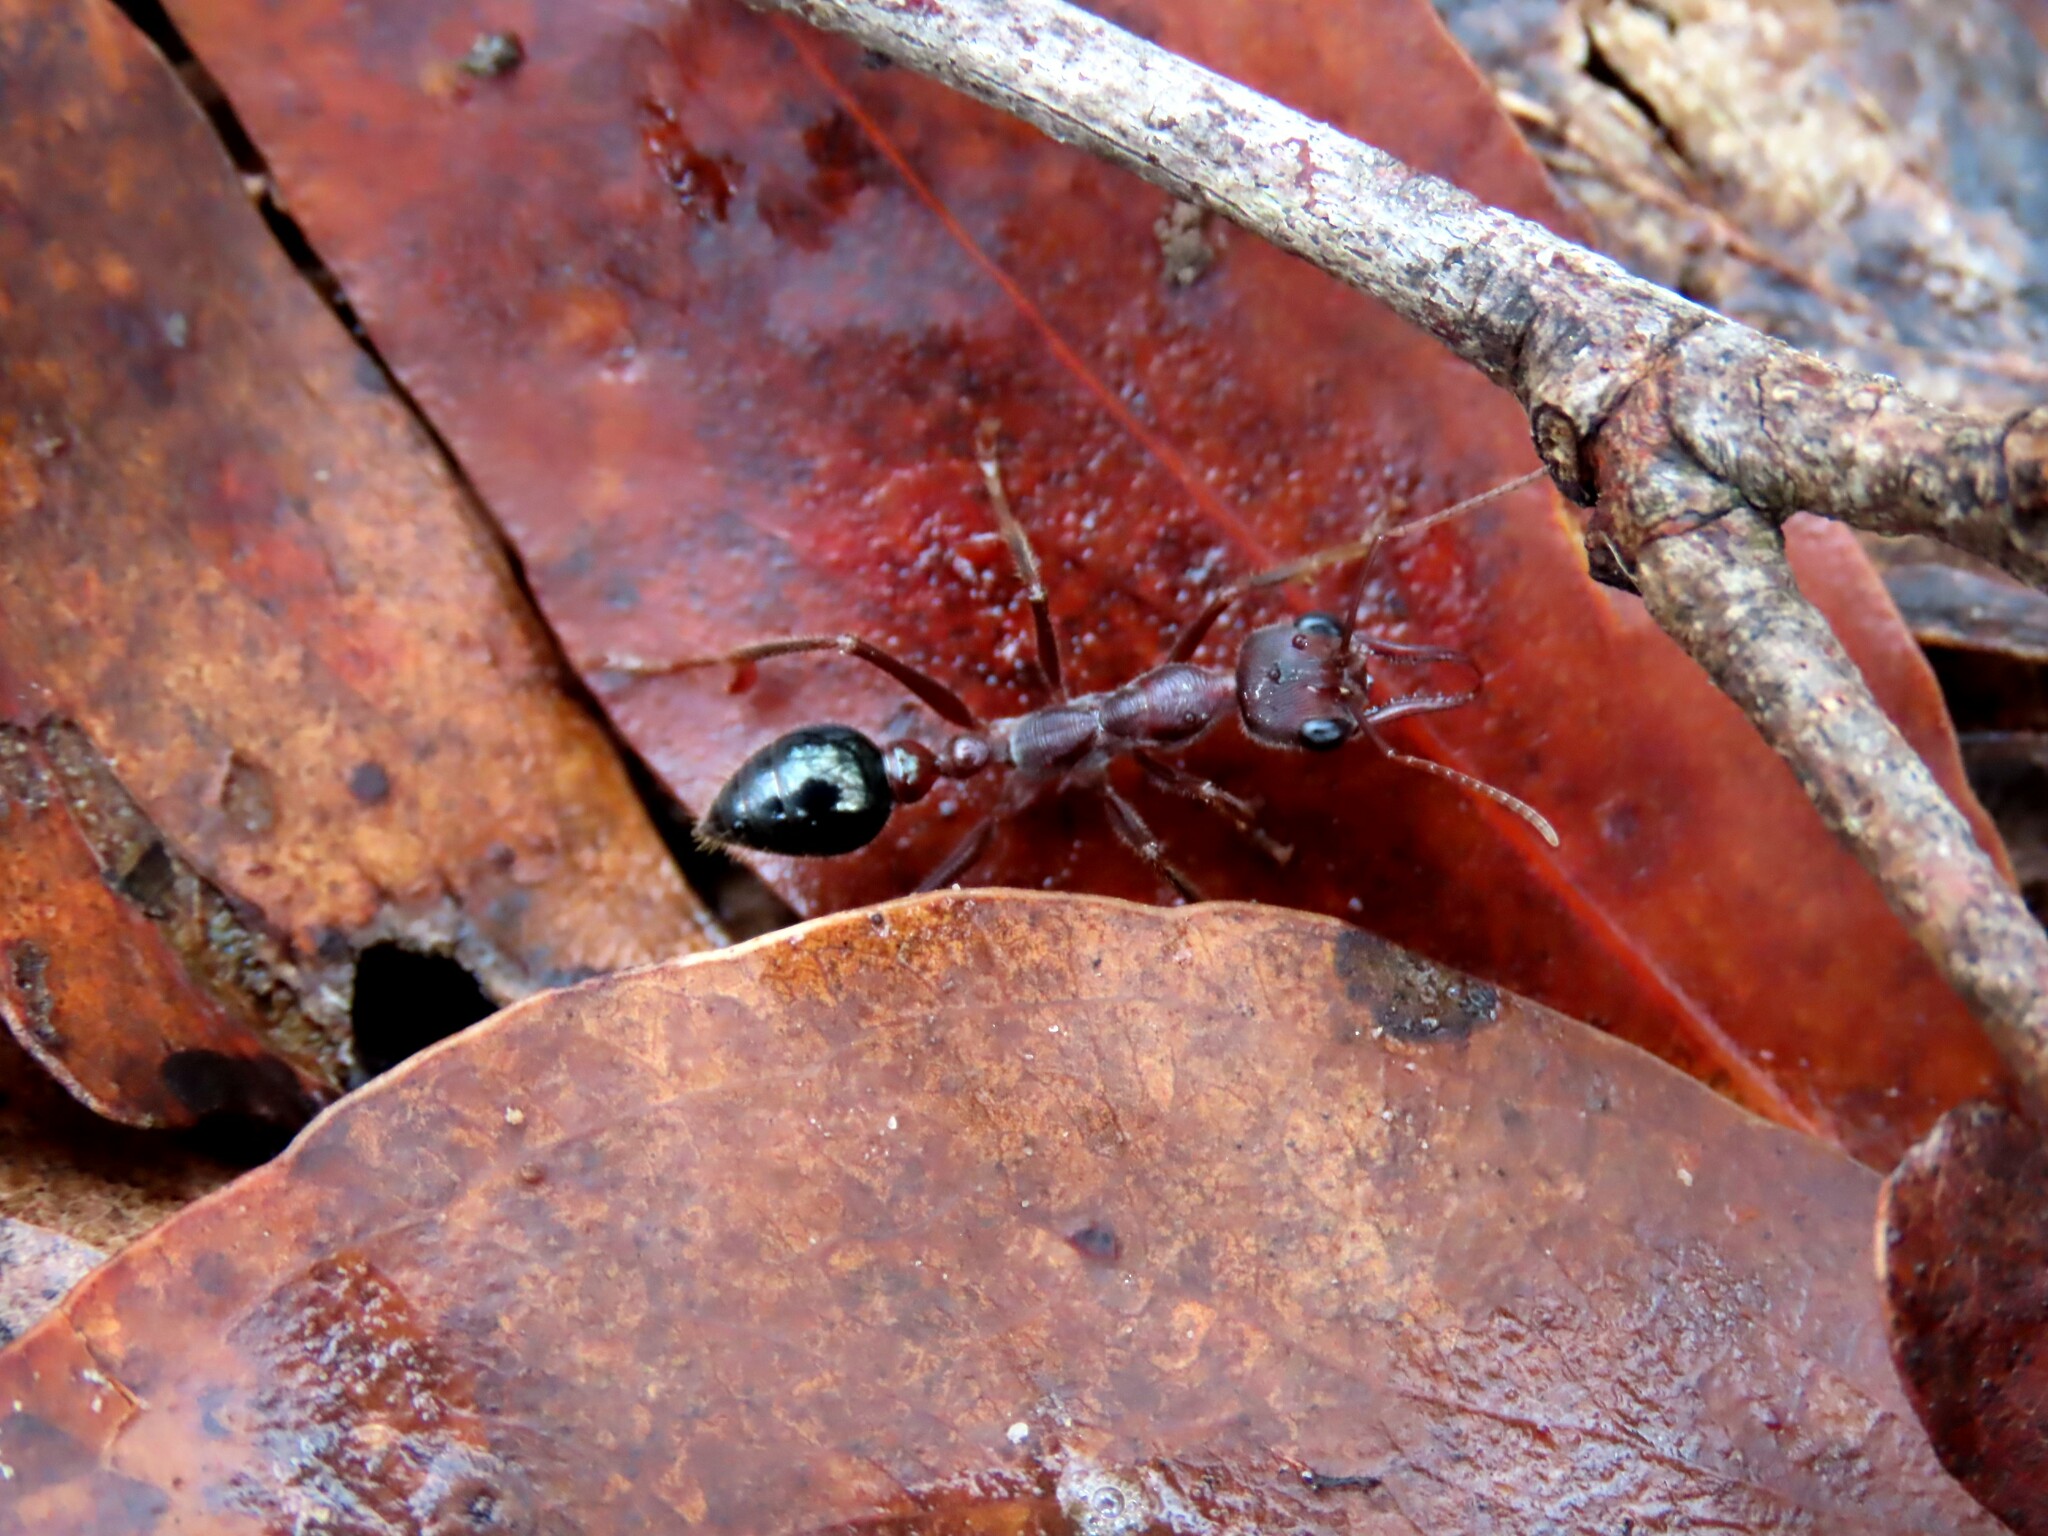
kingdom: Animalia
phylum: Arthropoda
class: Insecta
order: Hymenoptera
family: Formicidae
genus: Myrmecia
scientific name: Myrmecia forficata
